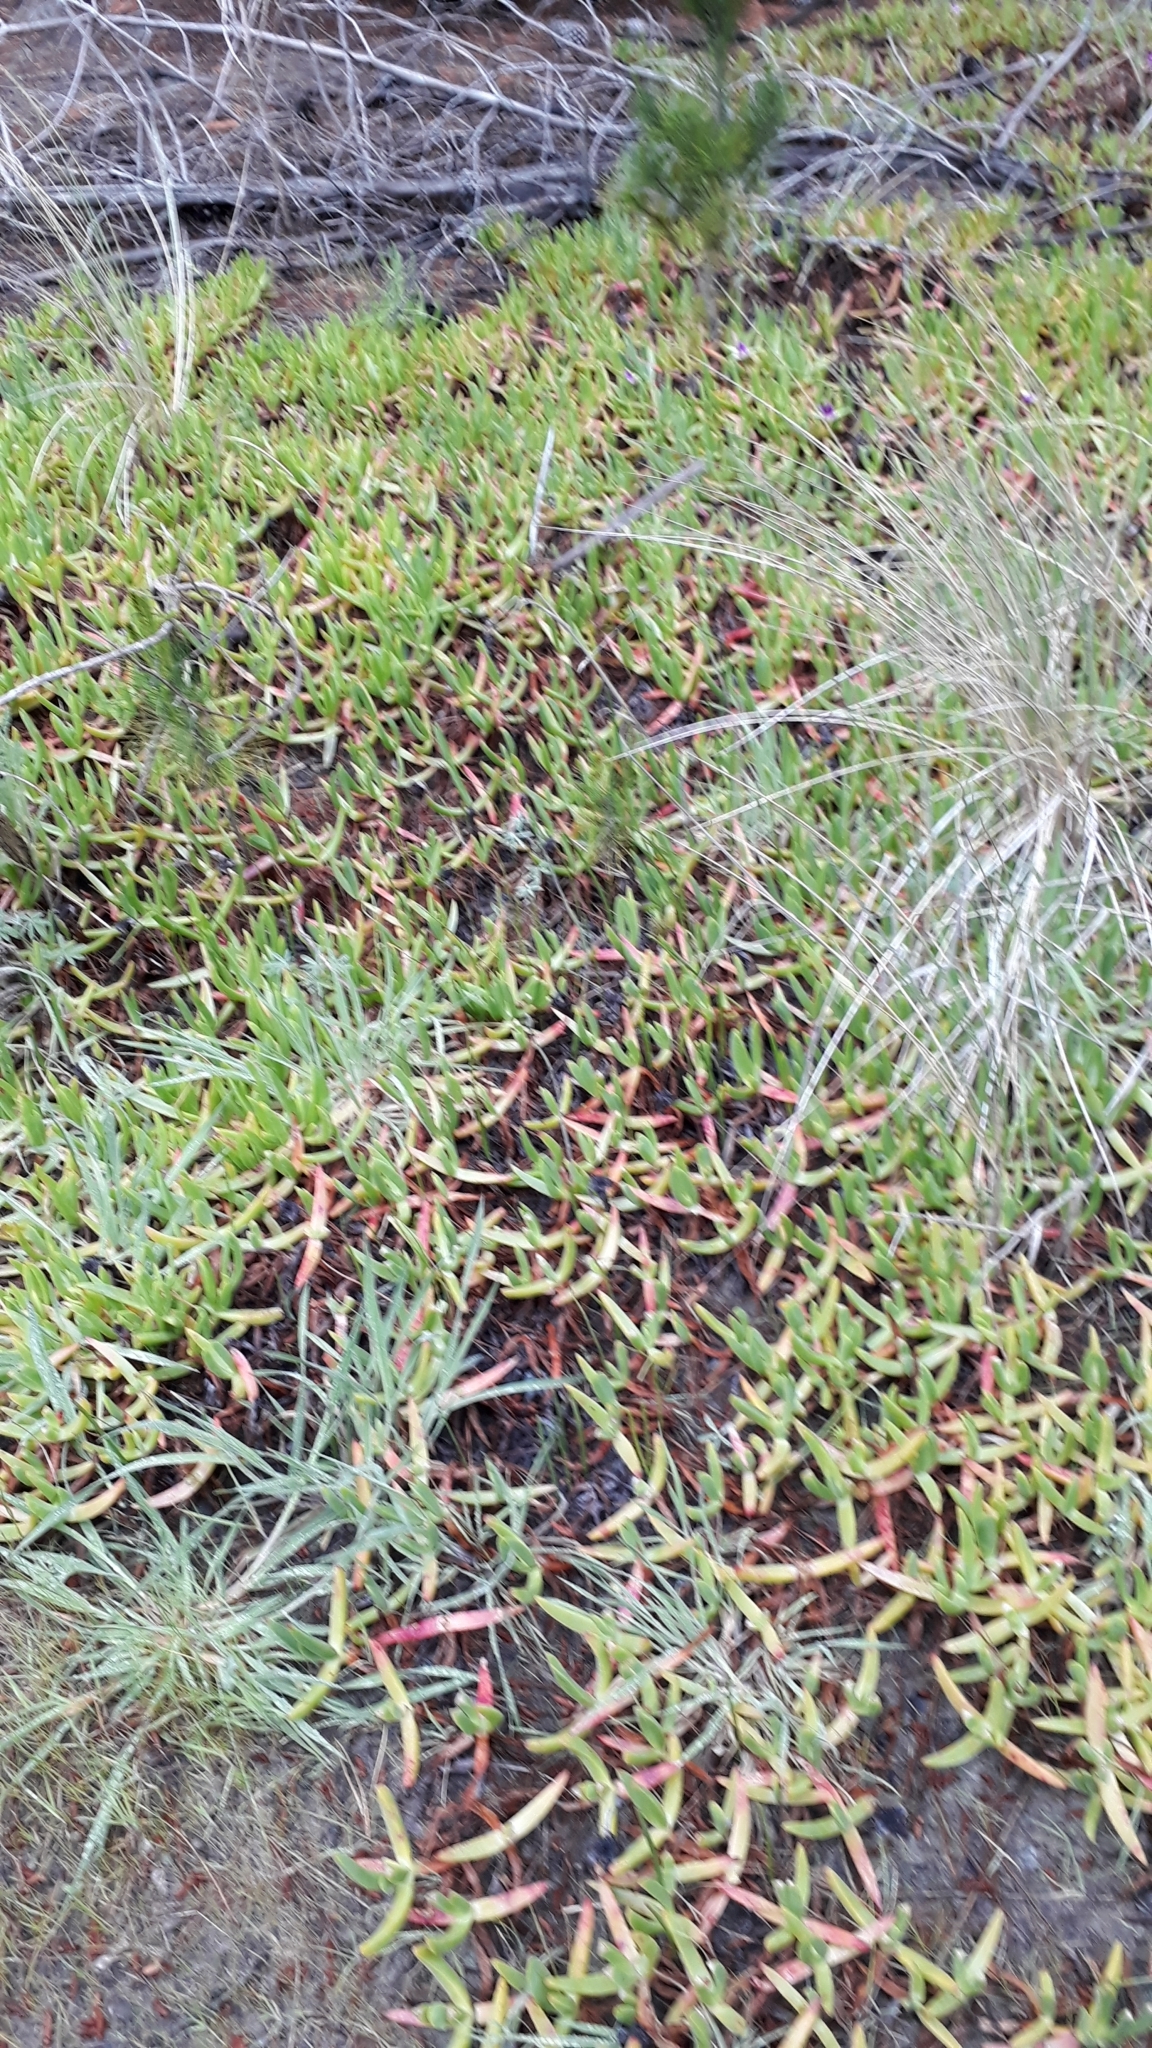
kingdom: Plantae
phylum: Tracheophyta
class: Magnoliopsida
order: Caryophyllales
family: Aizoaceae
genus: Carpobrotus
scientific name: Carpobrotus edulis
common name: Hottentot-fig
